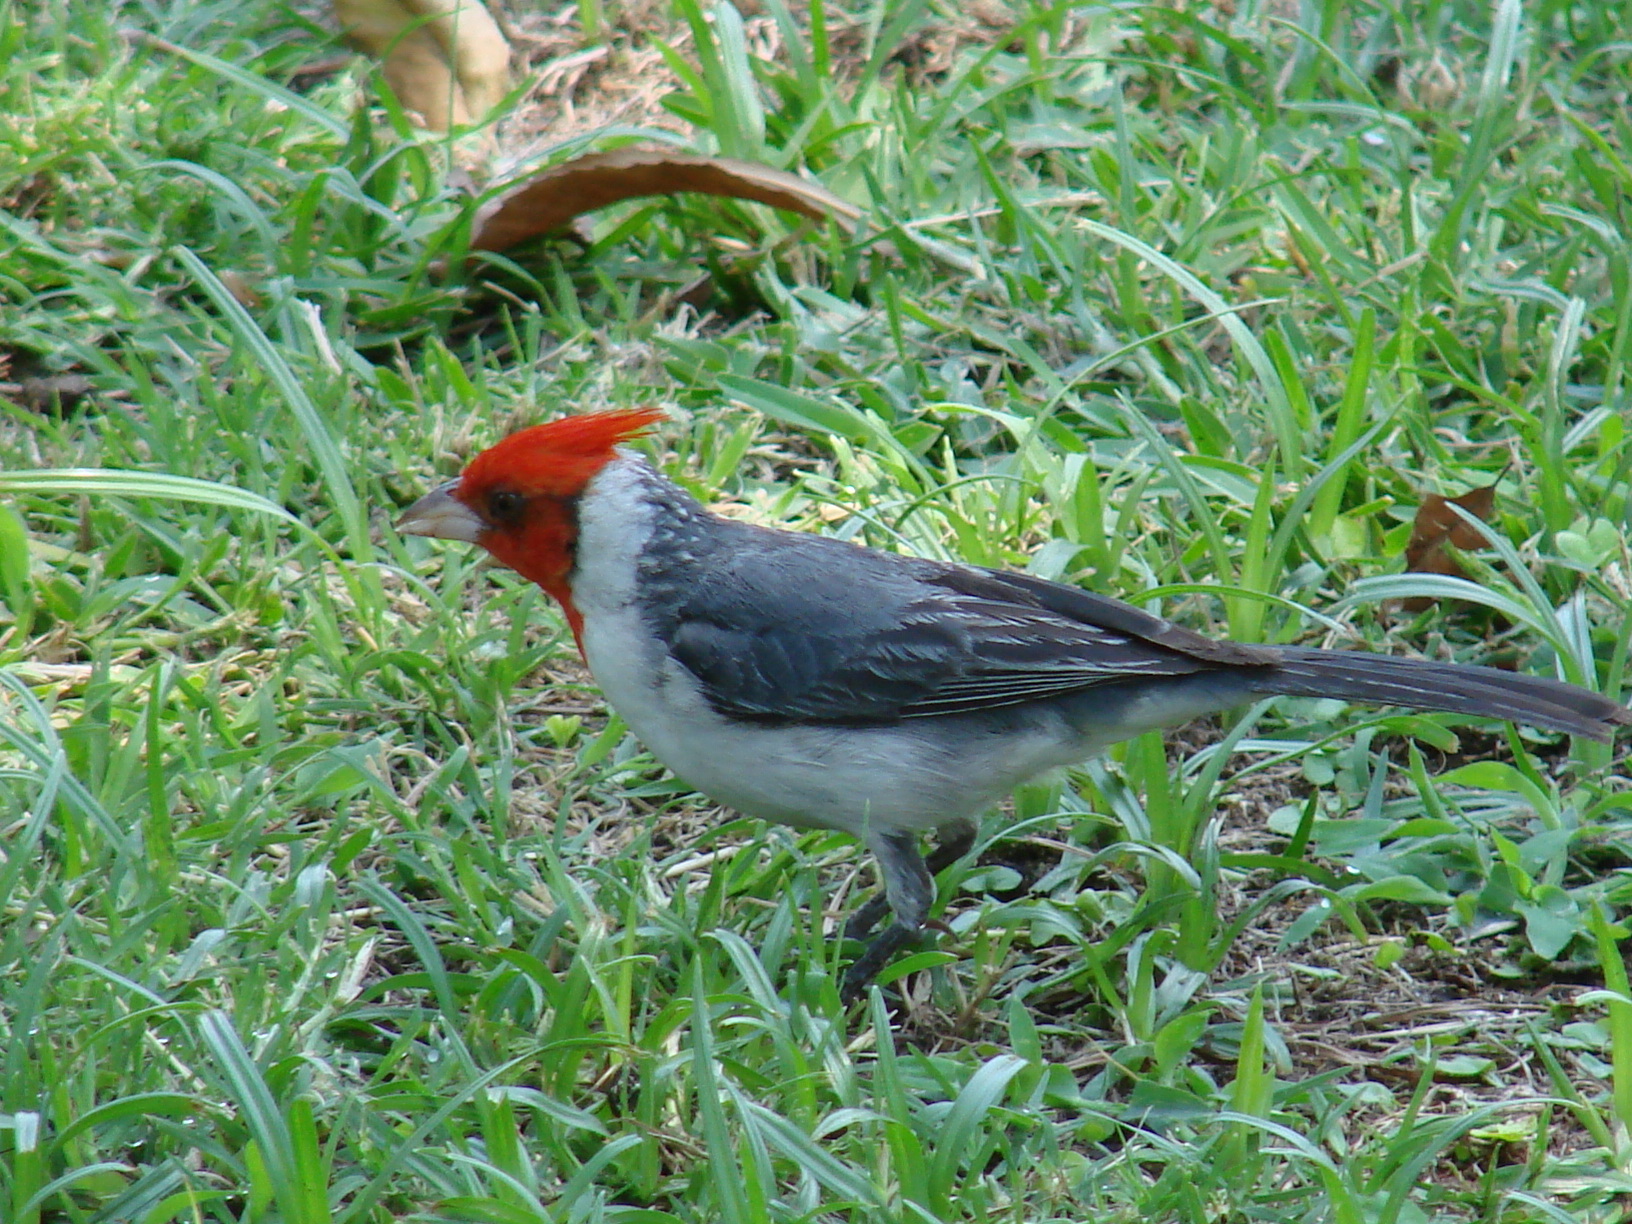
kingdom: Animalia
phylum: Chordata
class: Aves
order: Passeriformes
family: Thraupidae
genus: Paroaria
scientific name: Paroaria coronata
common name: Red-crested cardinal
